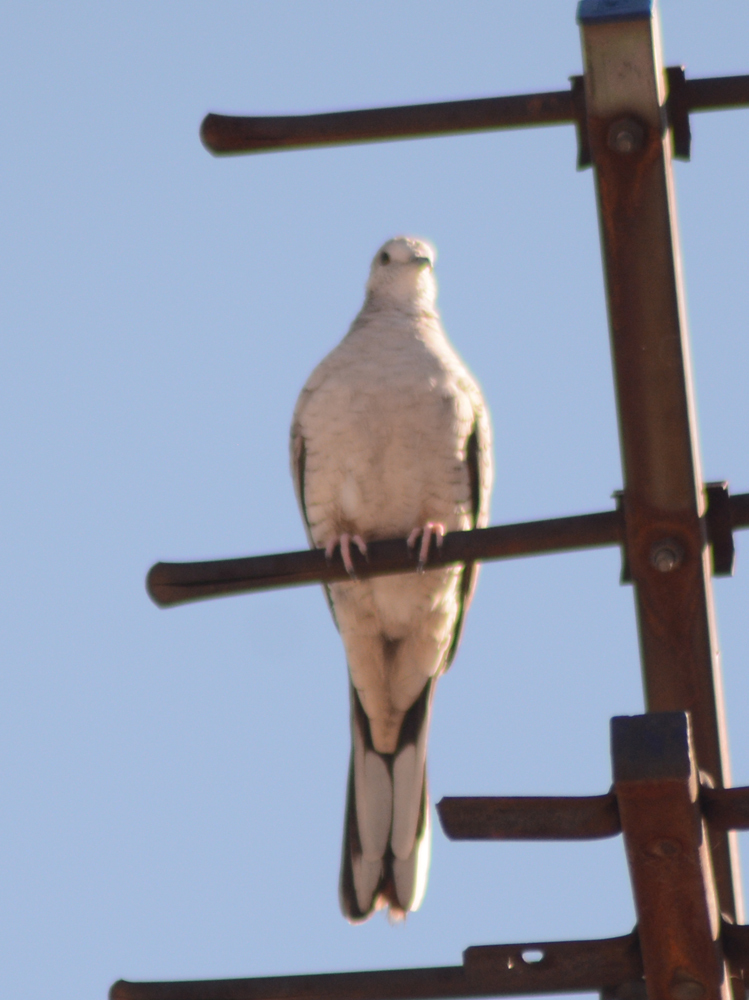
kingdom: Animalia
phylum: Chordata
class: Aves
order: Columbiformes
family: Columbidae
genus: Columbina
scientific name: Columbina inca
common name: Inca dove
